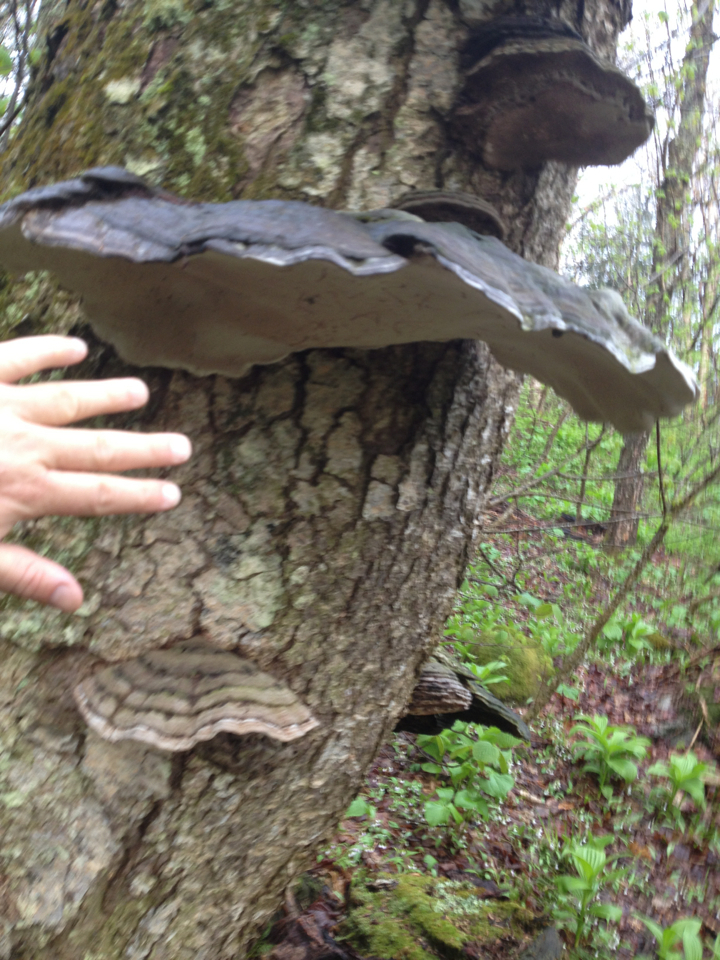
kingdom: Fungi
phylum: Basidiomycota
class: Agaricomycetes
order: Polyporales
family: Polyporaceae
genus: Ganoderma
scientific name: Ganoderma applanatum
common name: Artist's bracket
